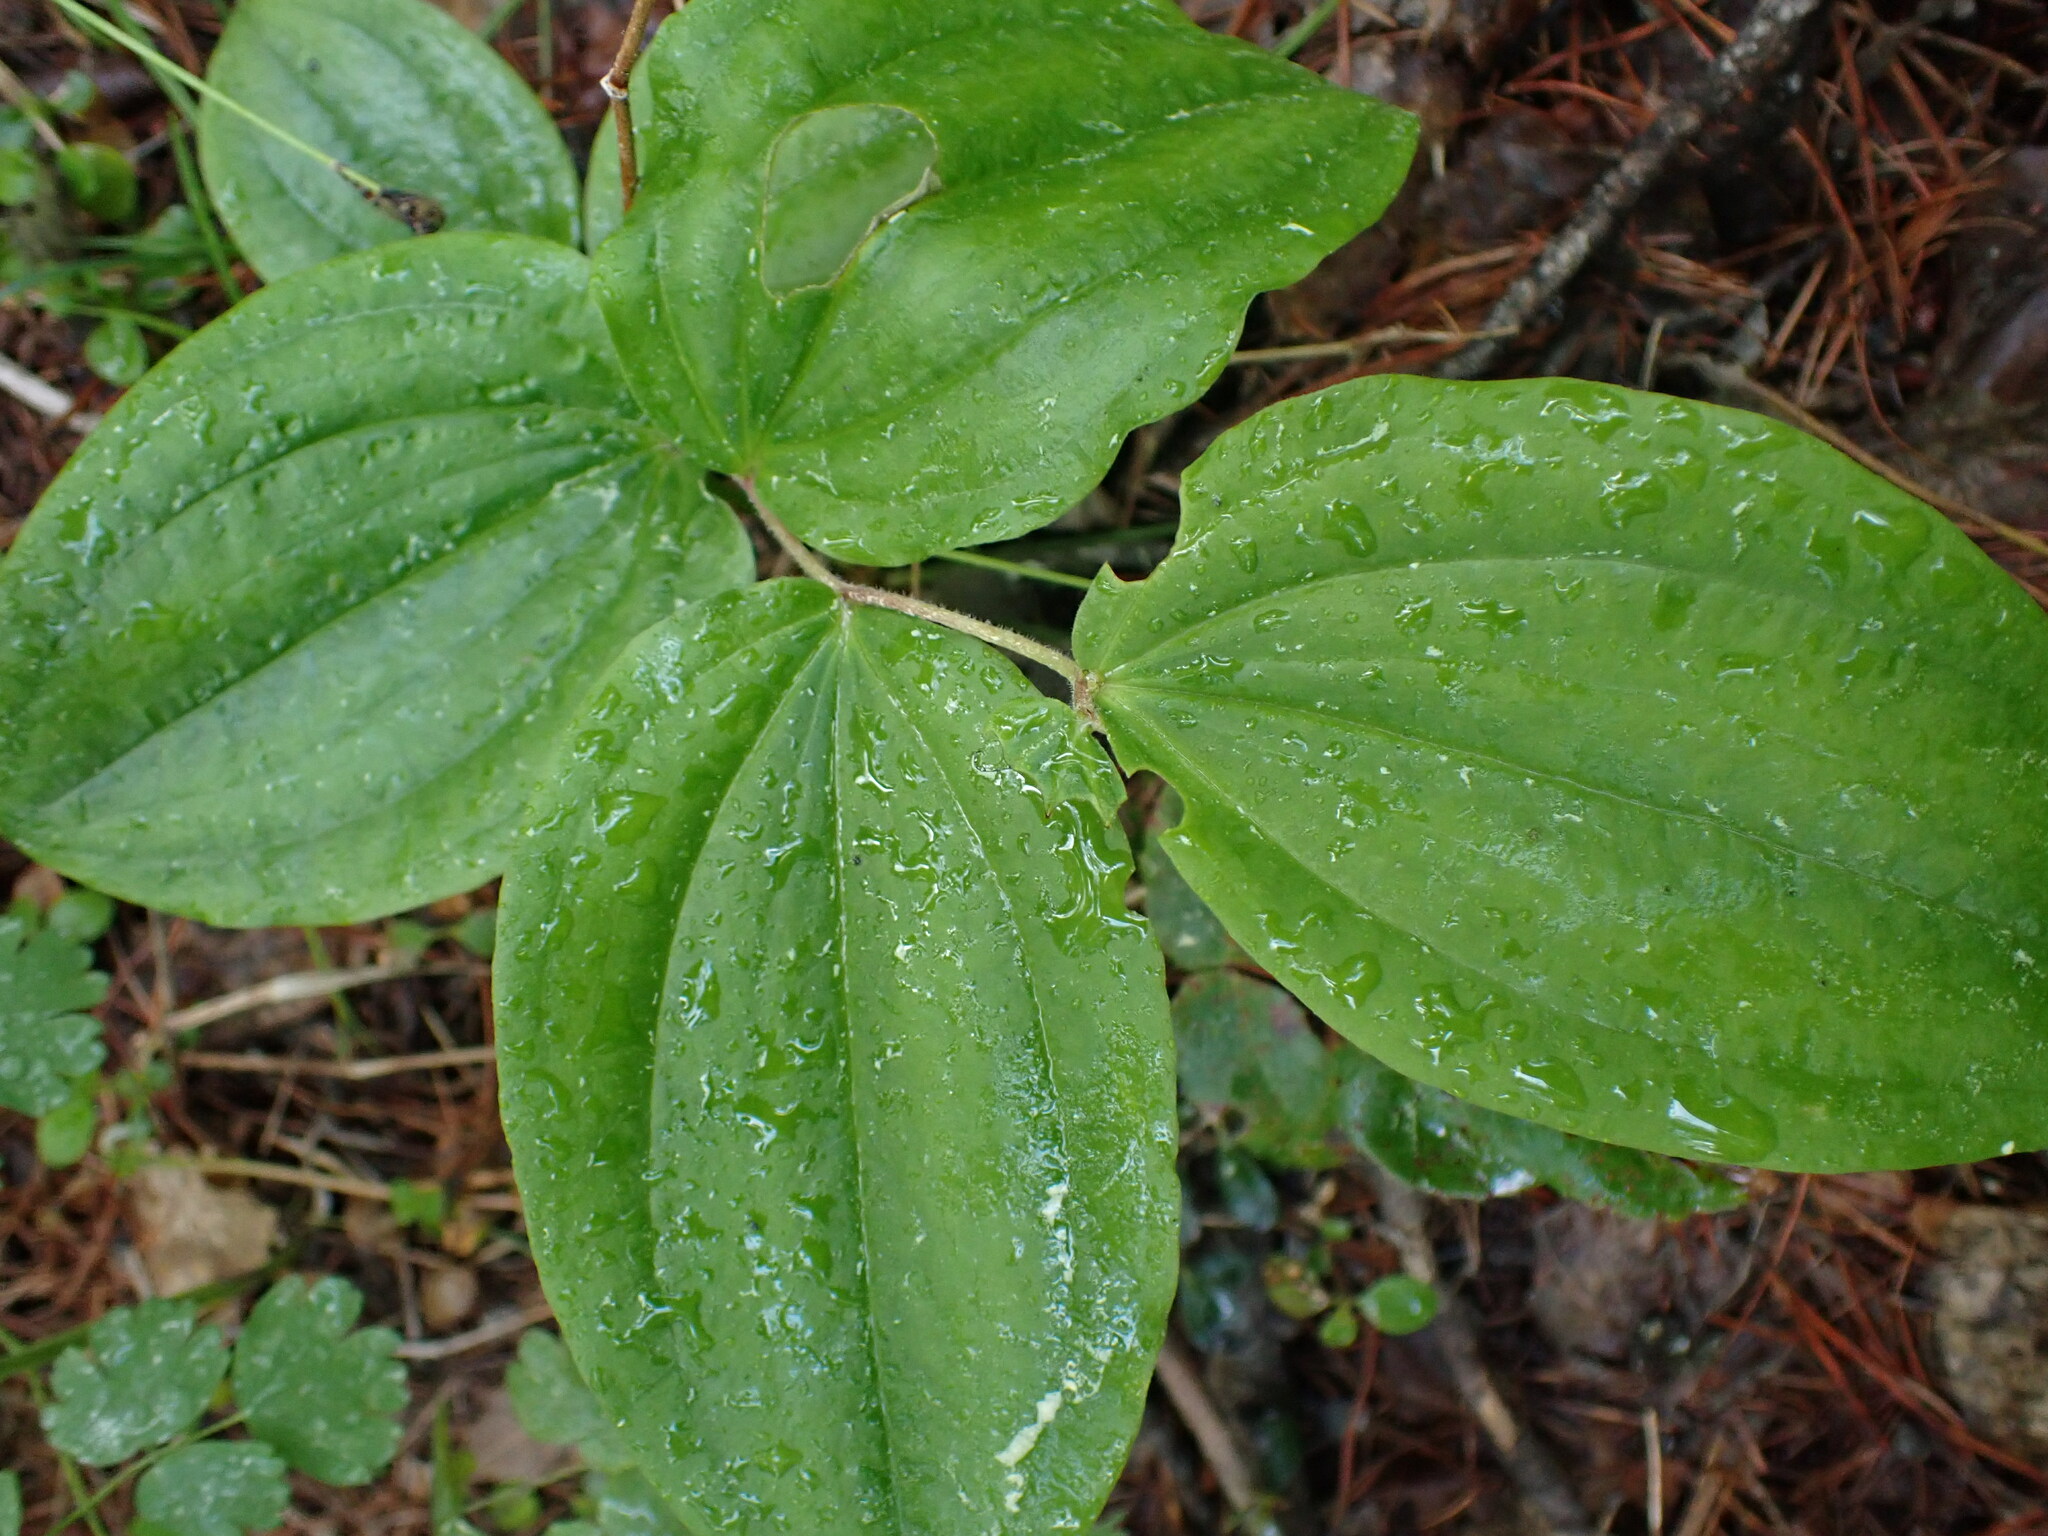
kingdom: Plantae
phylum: Tracheophyta
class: Liliopsida
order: Liliales
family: Liliaceae
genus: Prosartes
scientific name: Prosartes trachycarpa
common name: Rough-fruit fairy-bells
